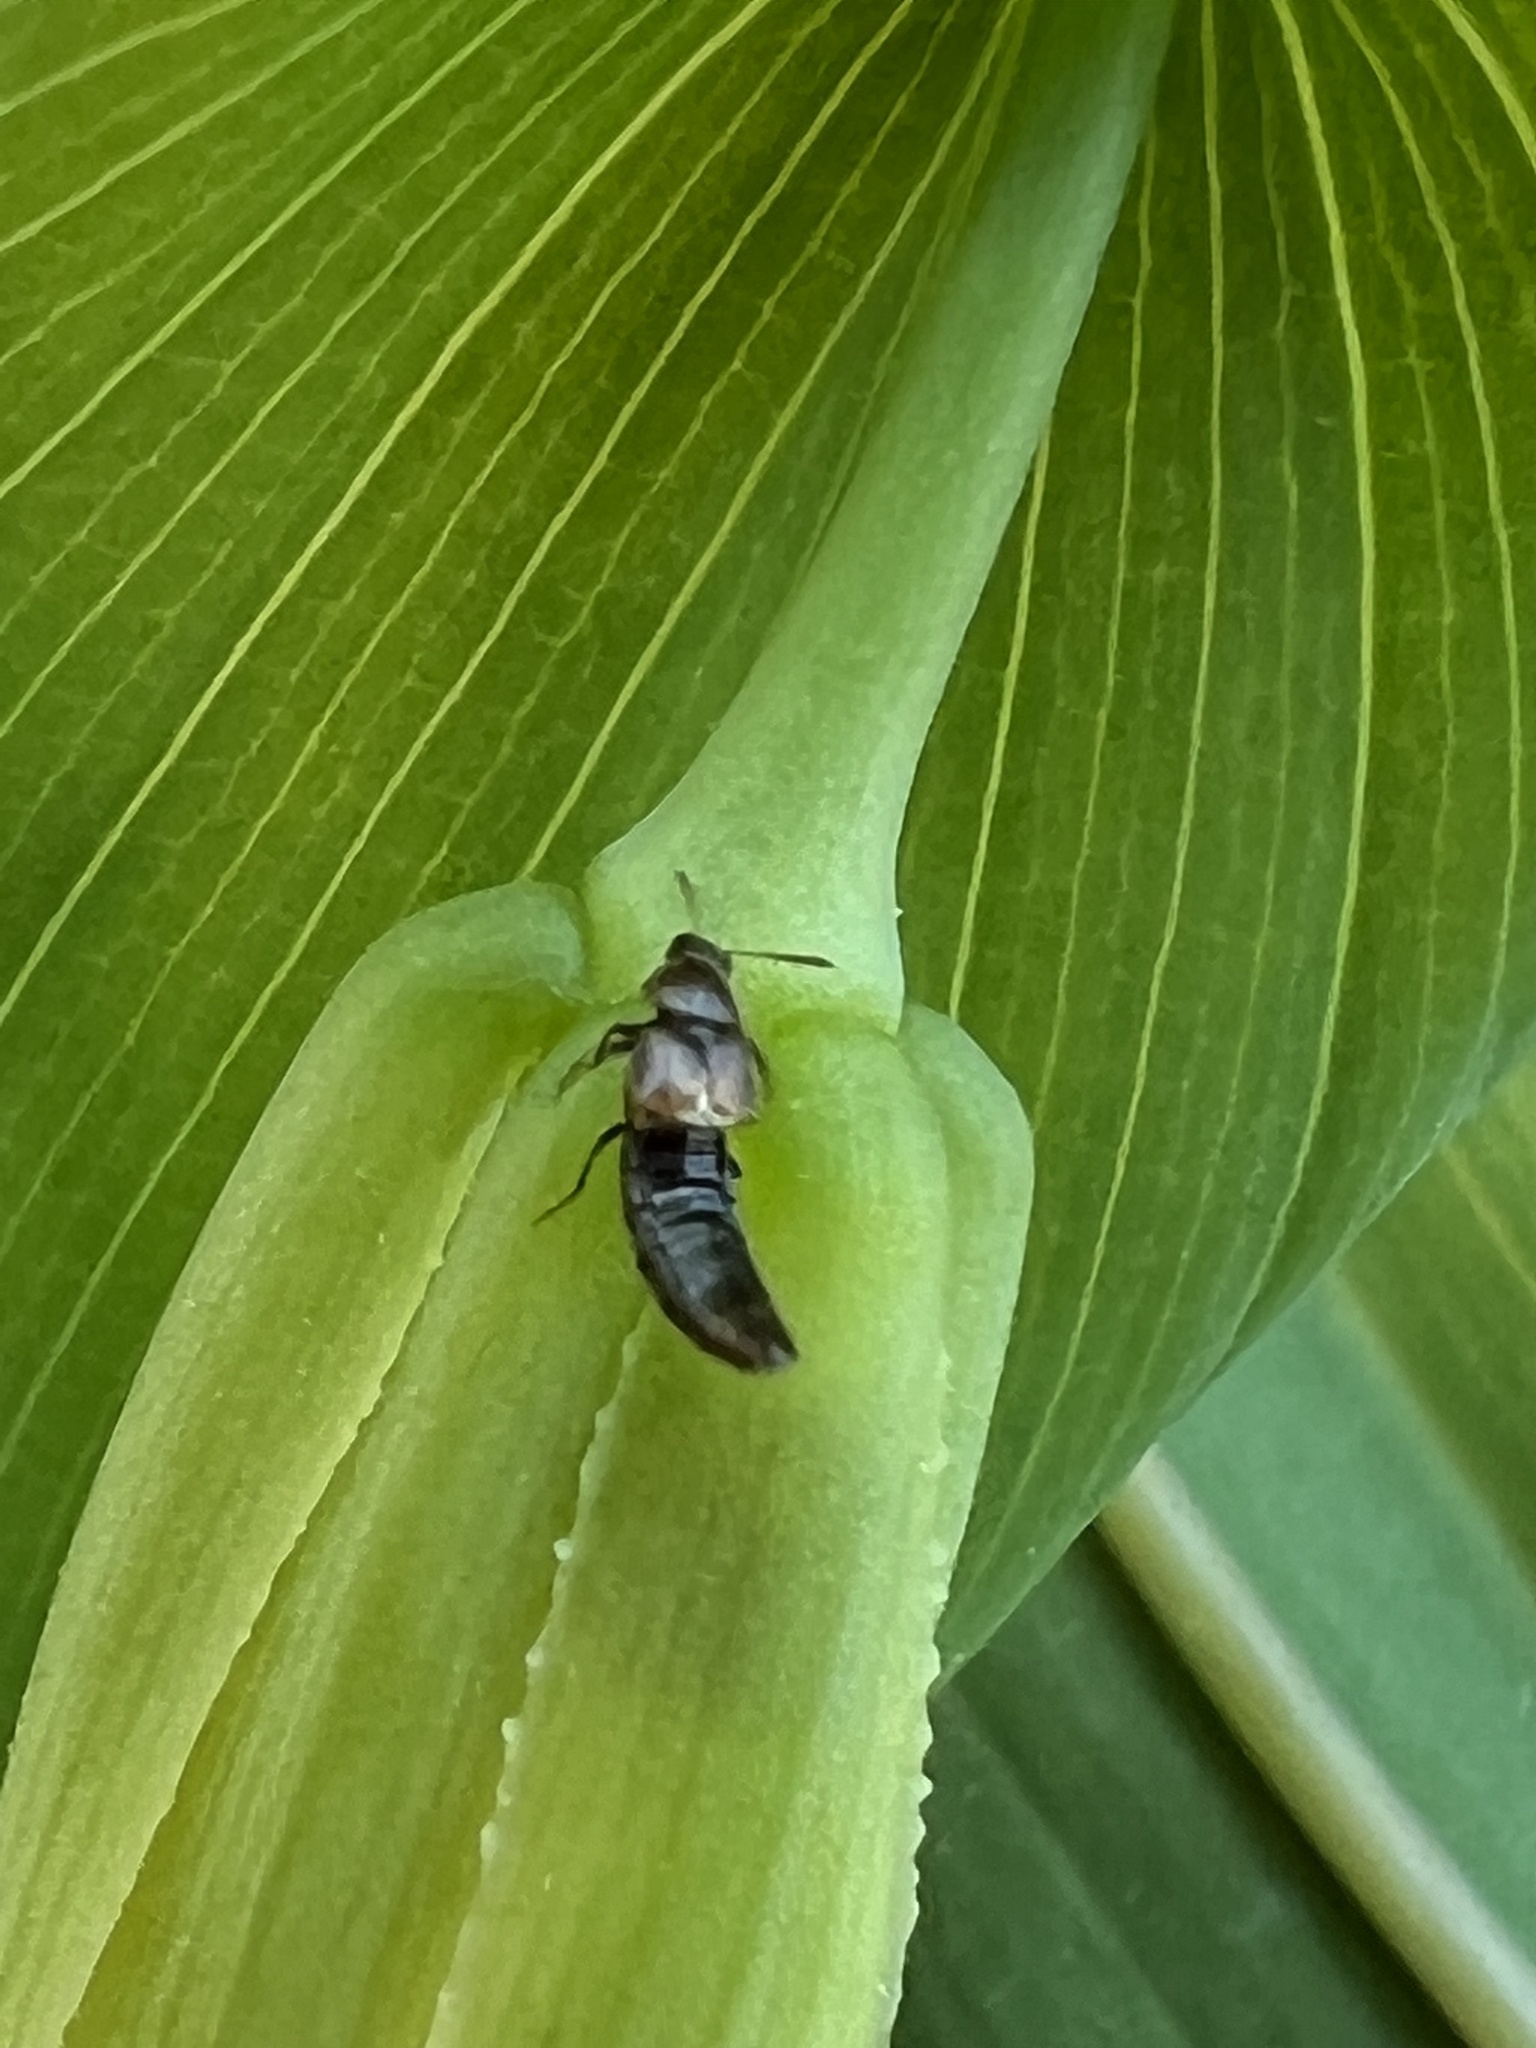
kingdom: Plantae
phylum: Tracheophyta
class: Liliopsida
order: Alismatales
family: Araceae
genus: Arisaema
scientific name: Arisaema triphyllum
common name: Jack-in-the-pulpit
